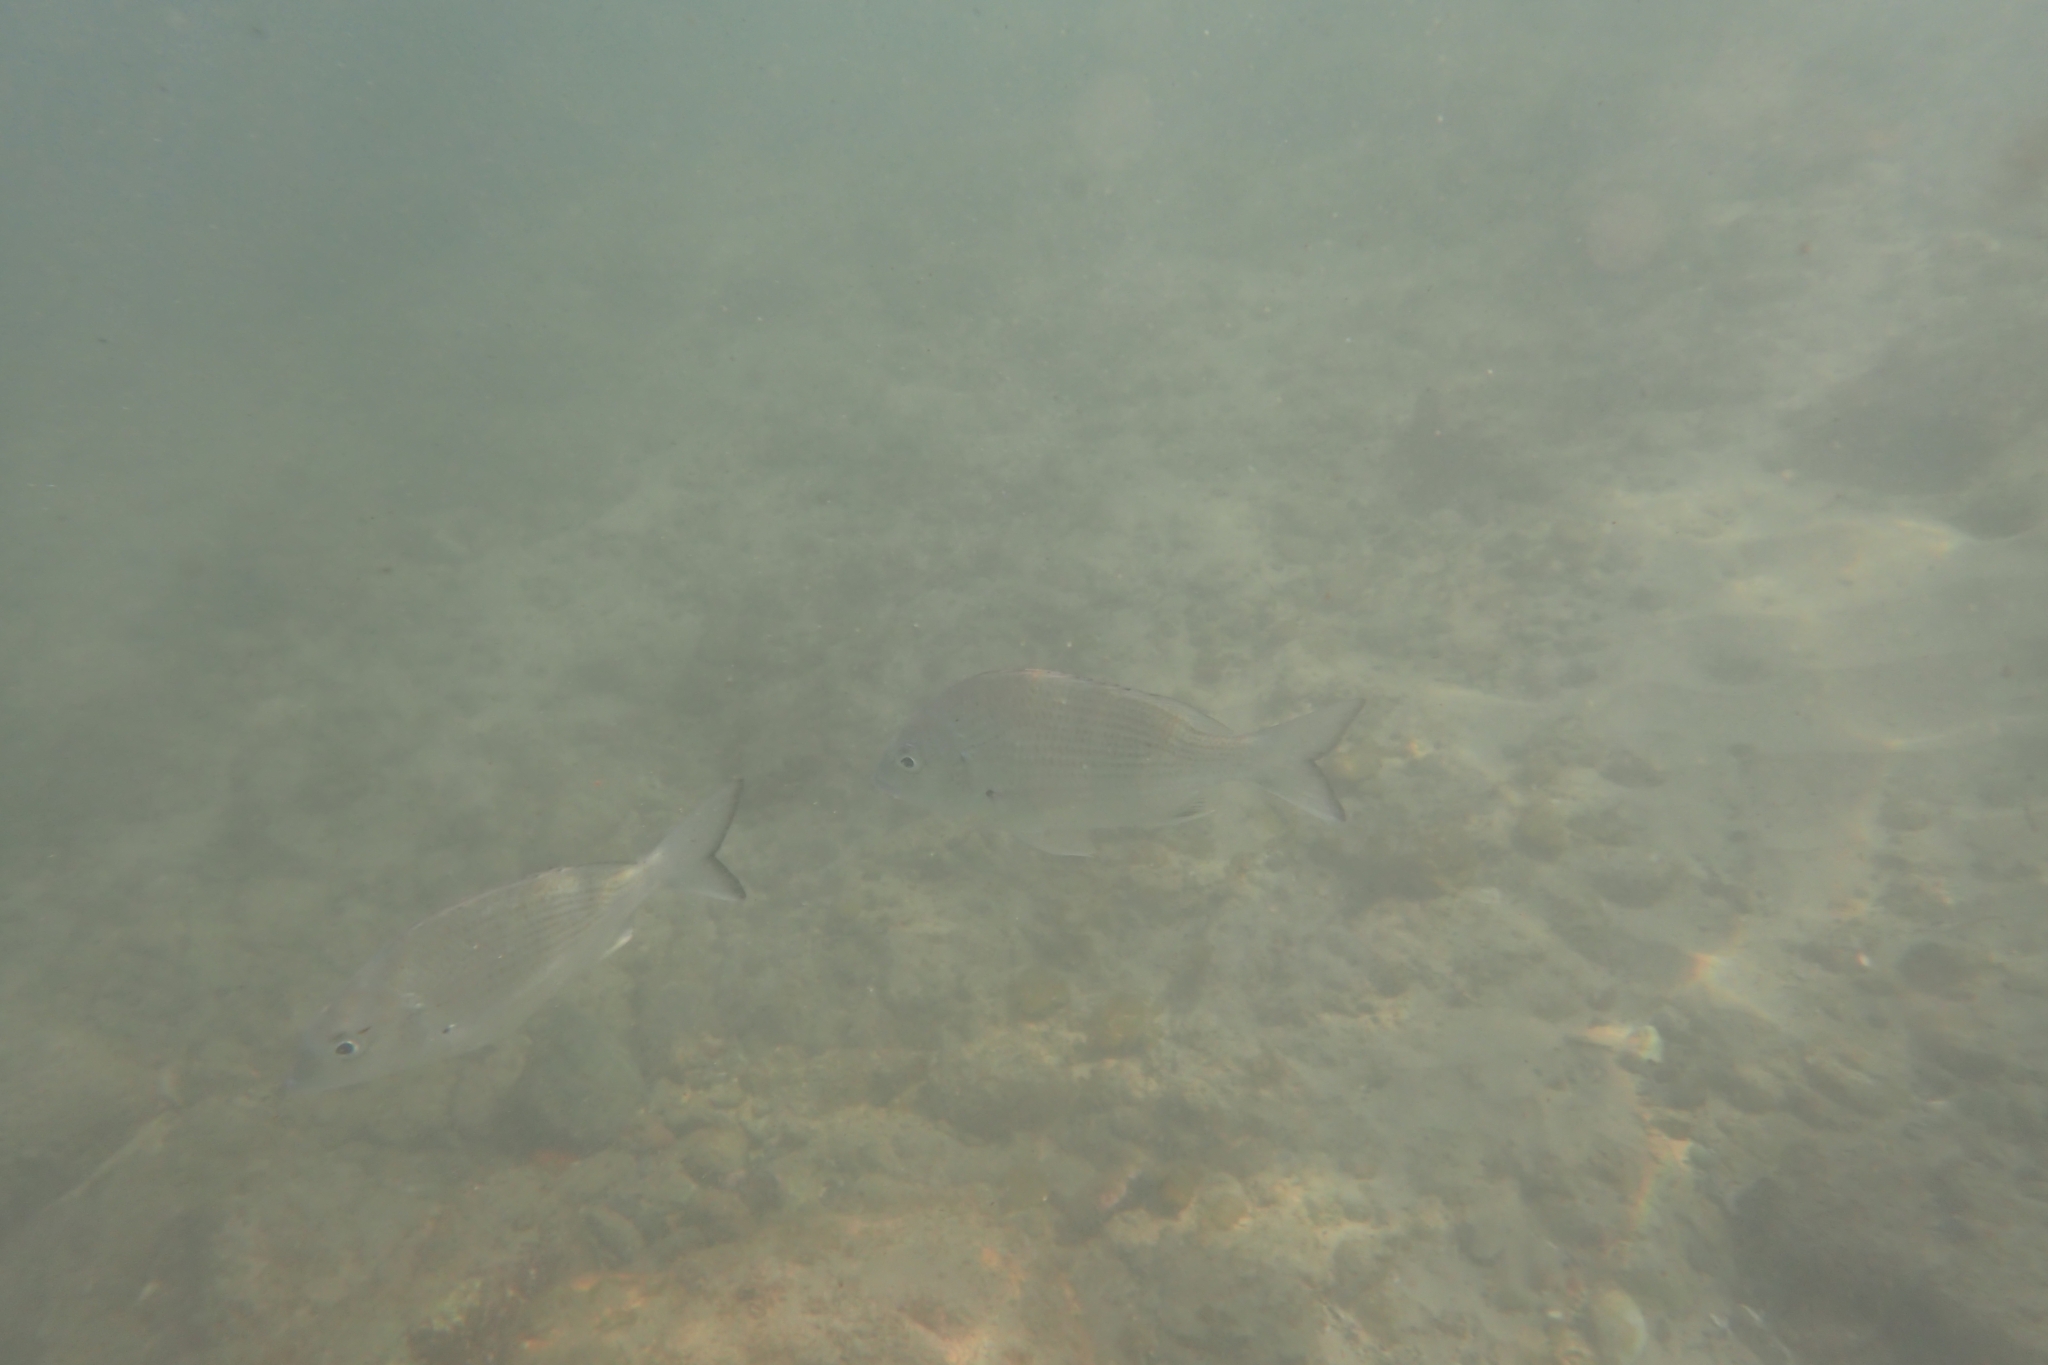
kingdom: Animalia
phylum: Chordata
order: Perciformes
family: Sparidae
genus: Acanthopagrus
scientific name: Acanthopagrus australis
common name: Surf bream
